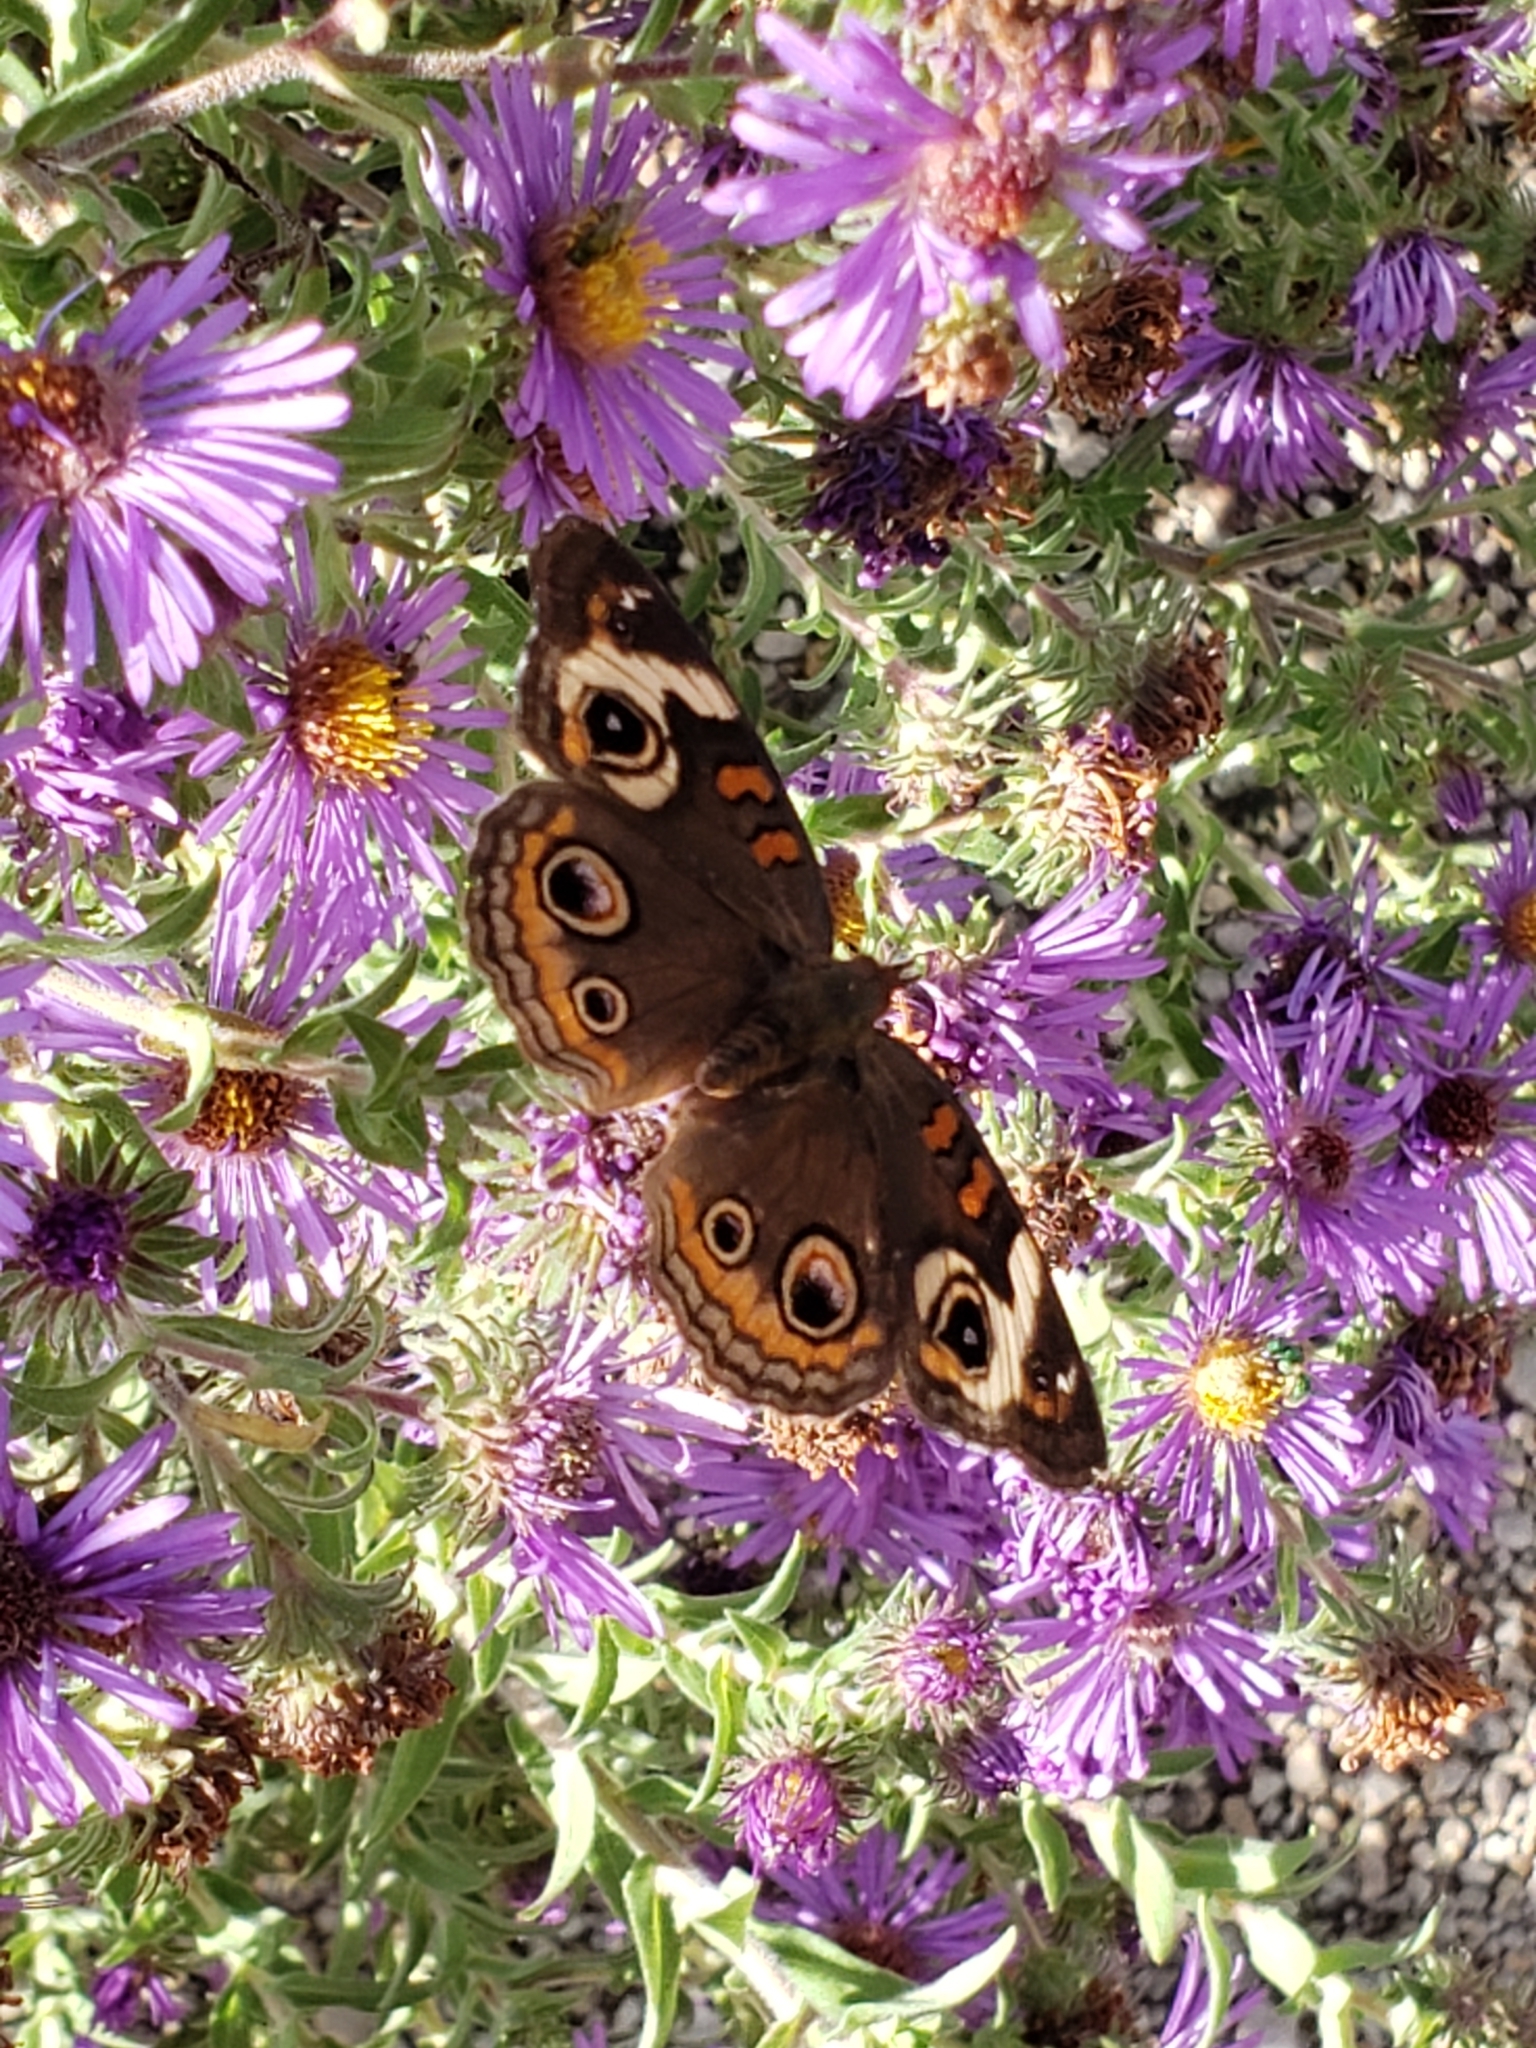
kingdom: Animalia
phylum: Arthropoda
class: Insecta
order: Lepidoptera
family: Nymphalidae
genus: Junonia
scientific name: Junonia coenia
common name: Common buckeye
